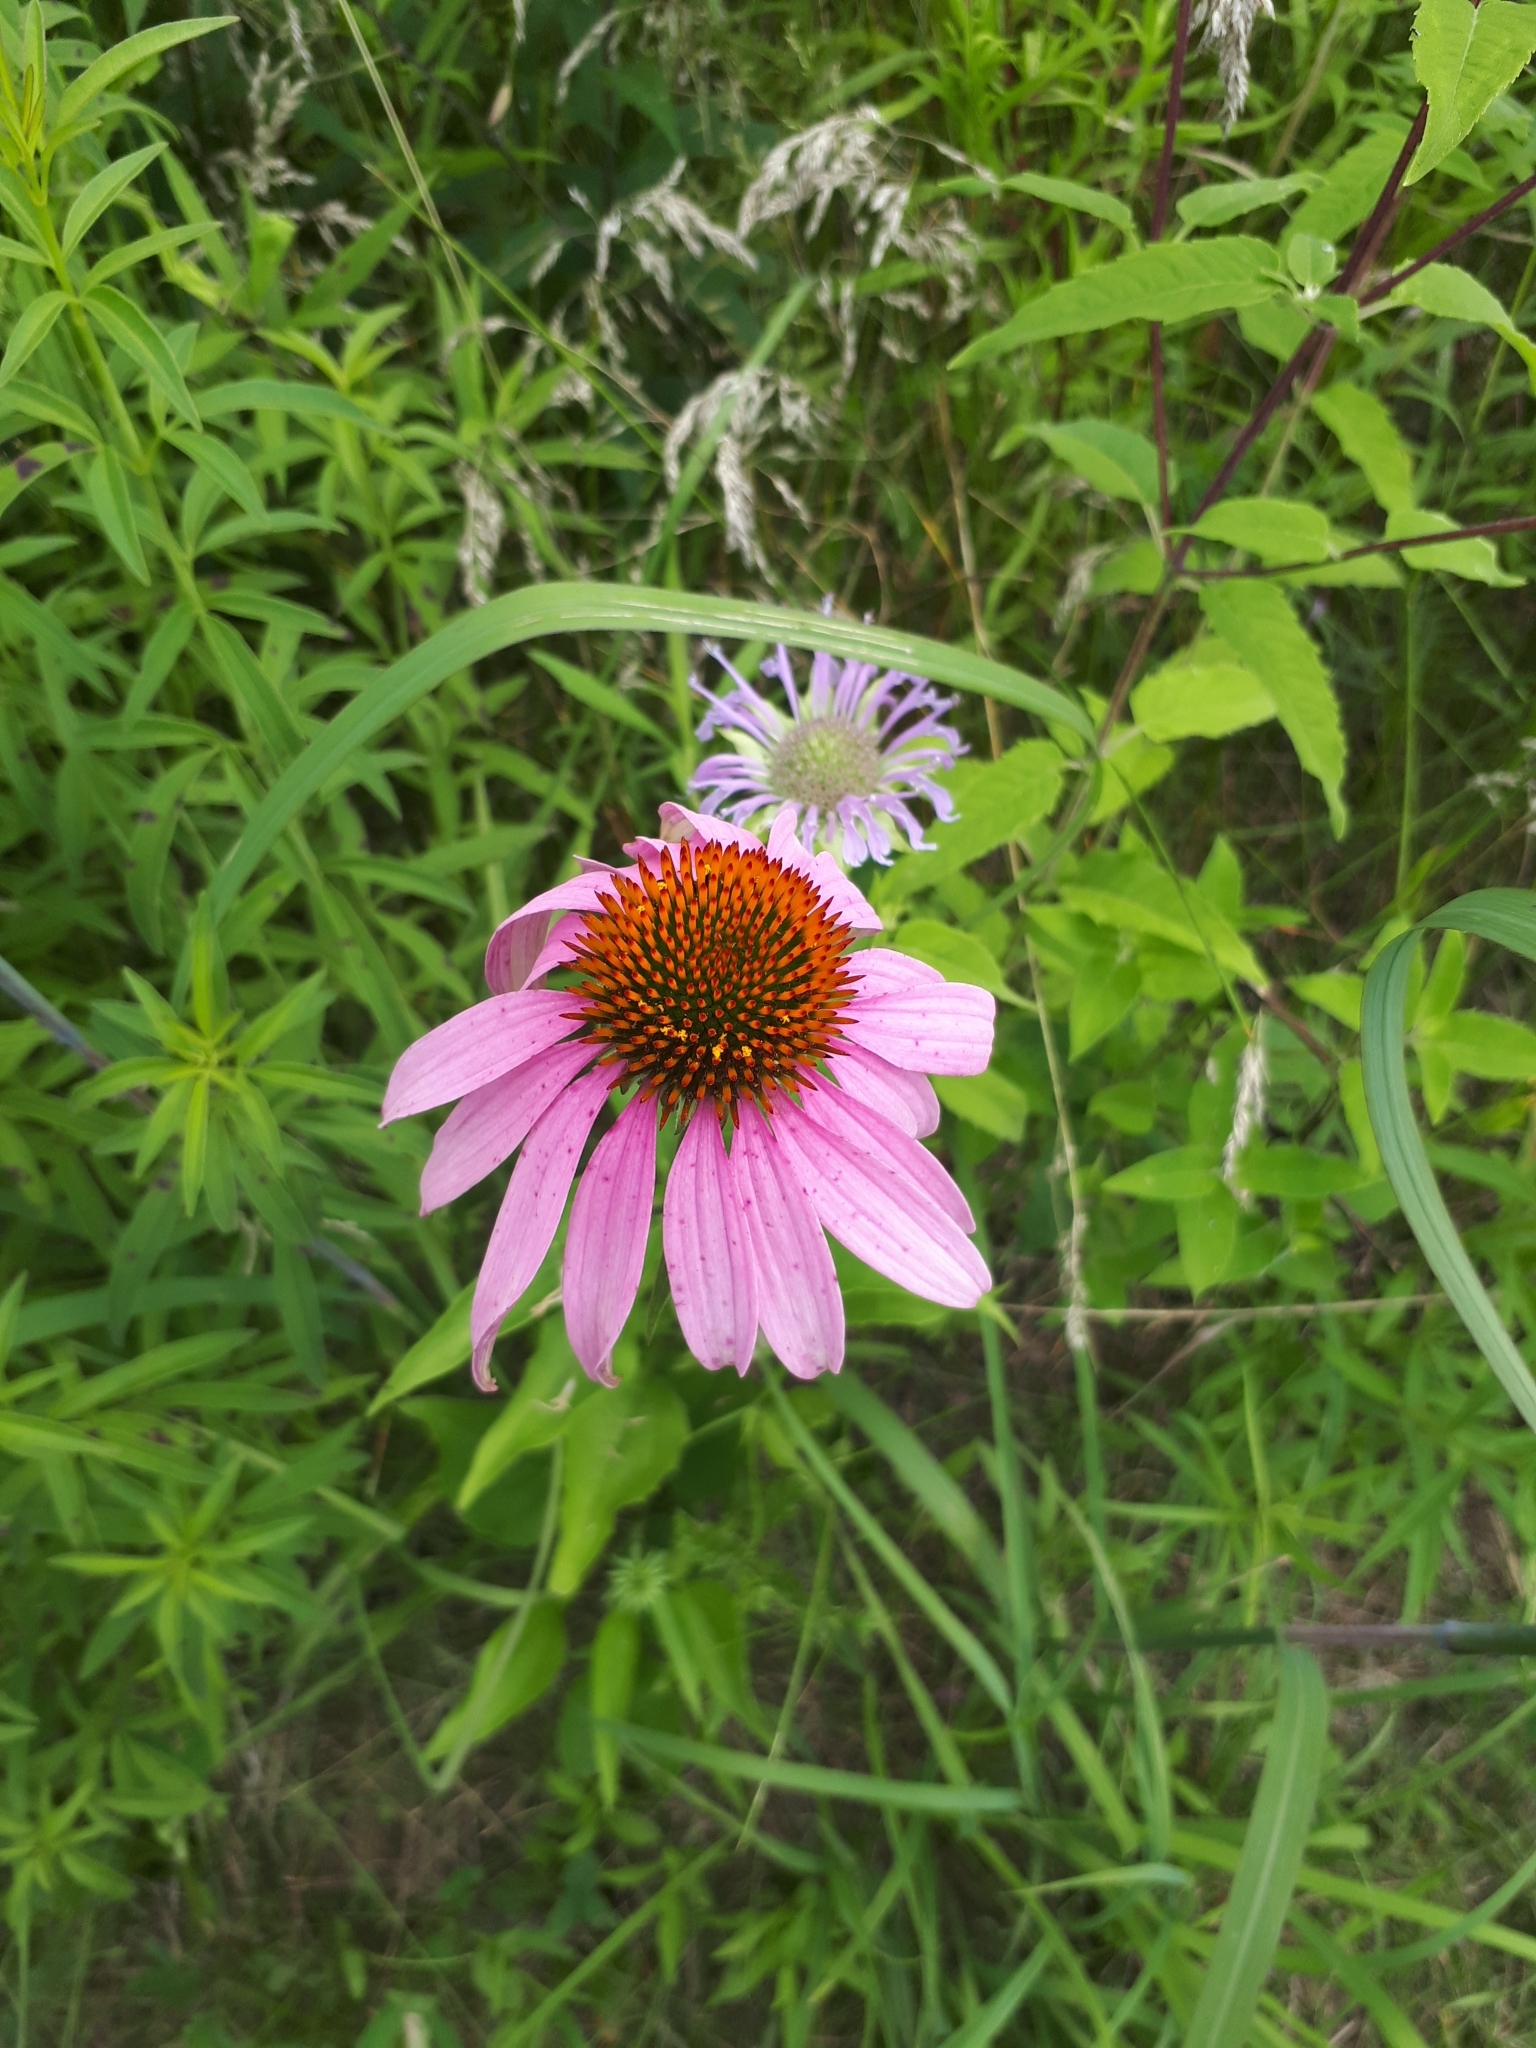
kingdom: Plantae
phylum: Tracheophyta
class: Magnoliopsida
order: Asterales
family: Asteraceae
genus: Echinacea
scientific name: Echinacea purpurea
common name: Broad-leaved purple coneflower
